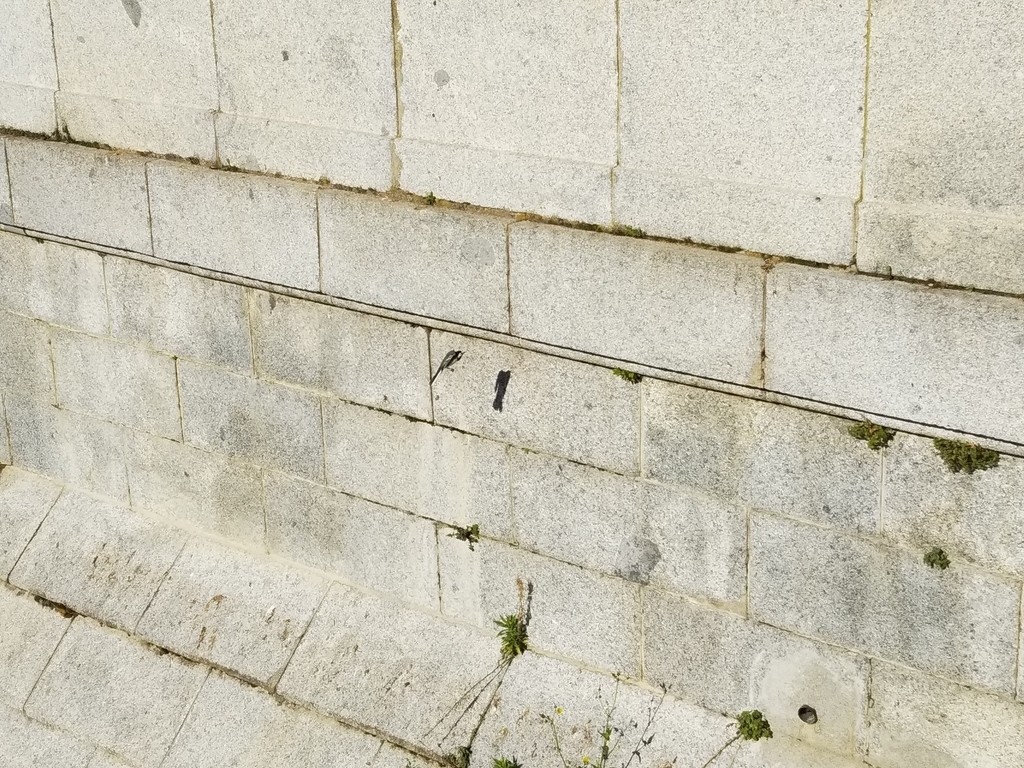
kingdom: Animalia
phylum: Chordata
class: Aves
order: Passeriformes
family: Motacillidae
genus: Motacilla
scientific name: Motacilla alba
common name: White wagtail
